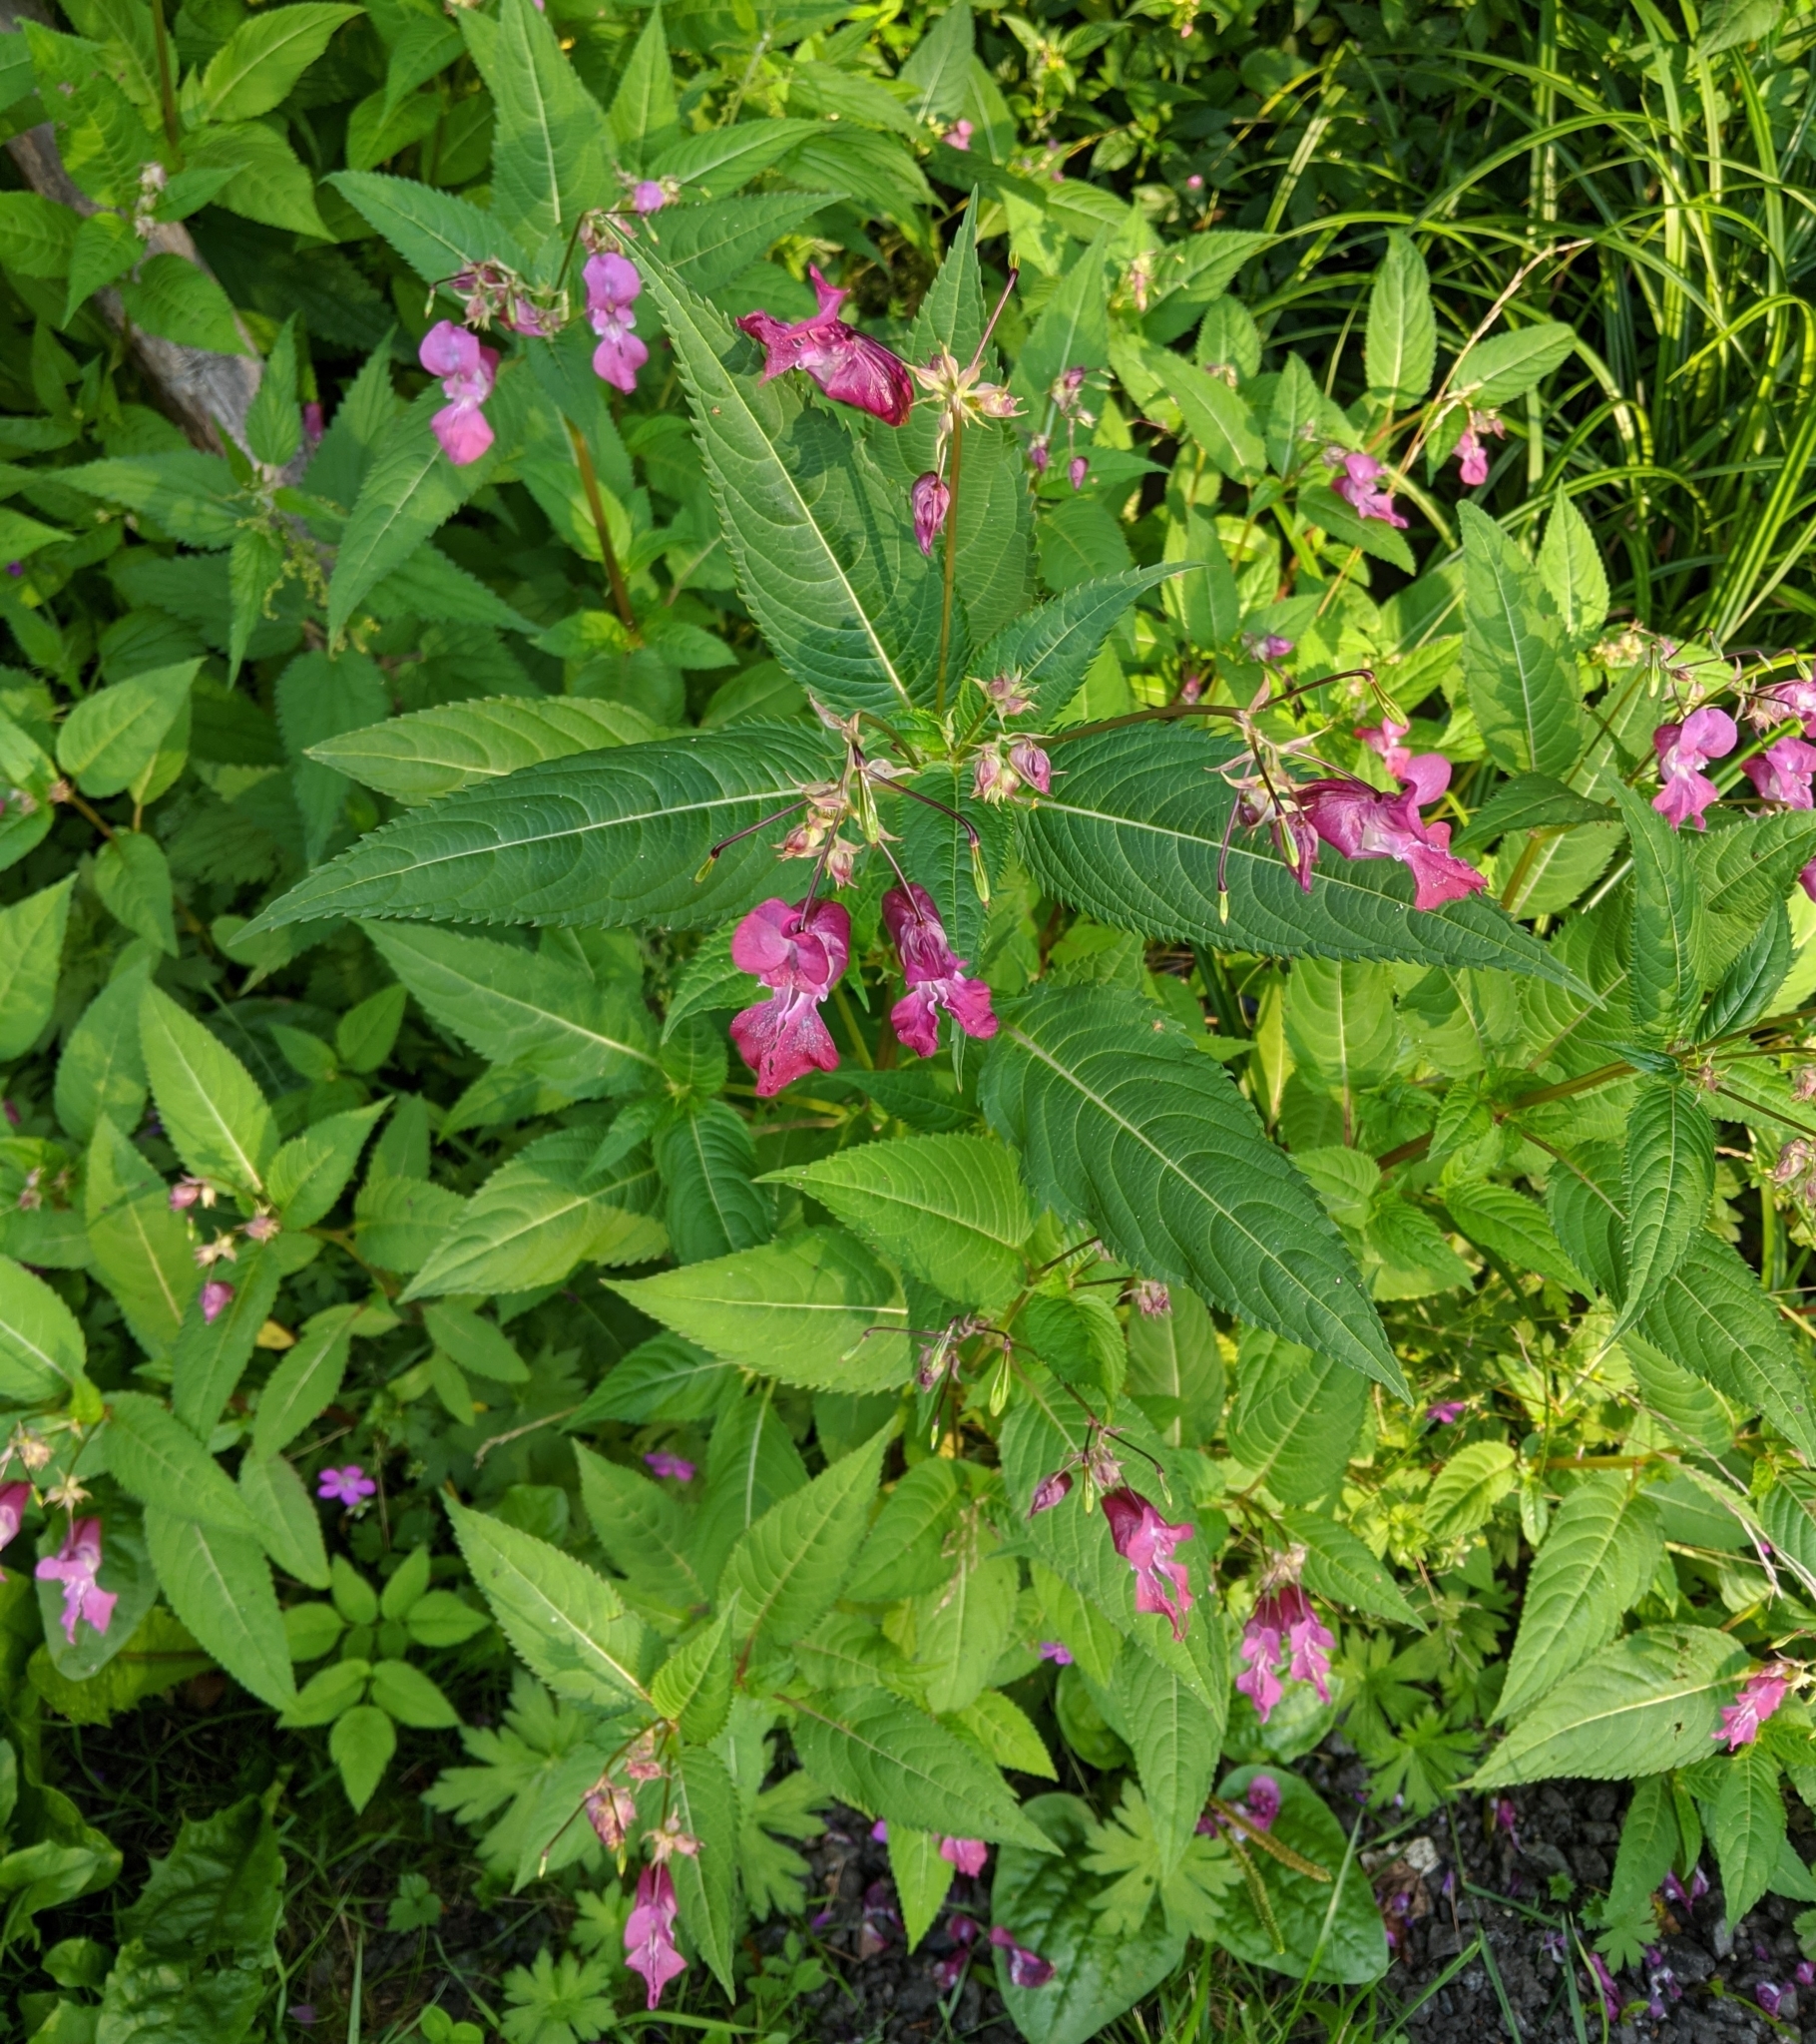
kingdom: Plantae
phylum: Tracheophyta
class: Magnoliopsida
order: Ericales
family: Balsaminaceae
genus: Impatiens
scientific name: Impatiens glandulifera
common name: Himalayan balsam
